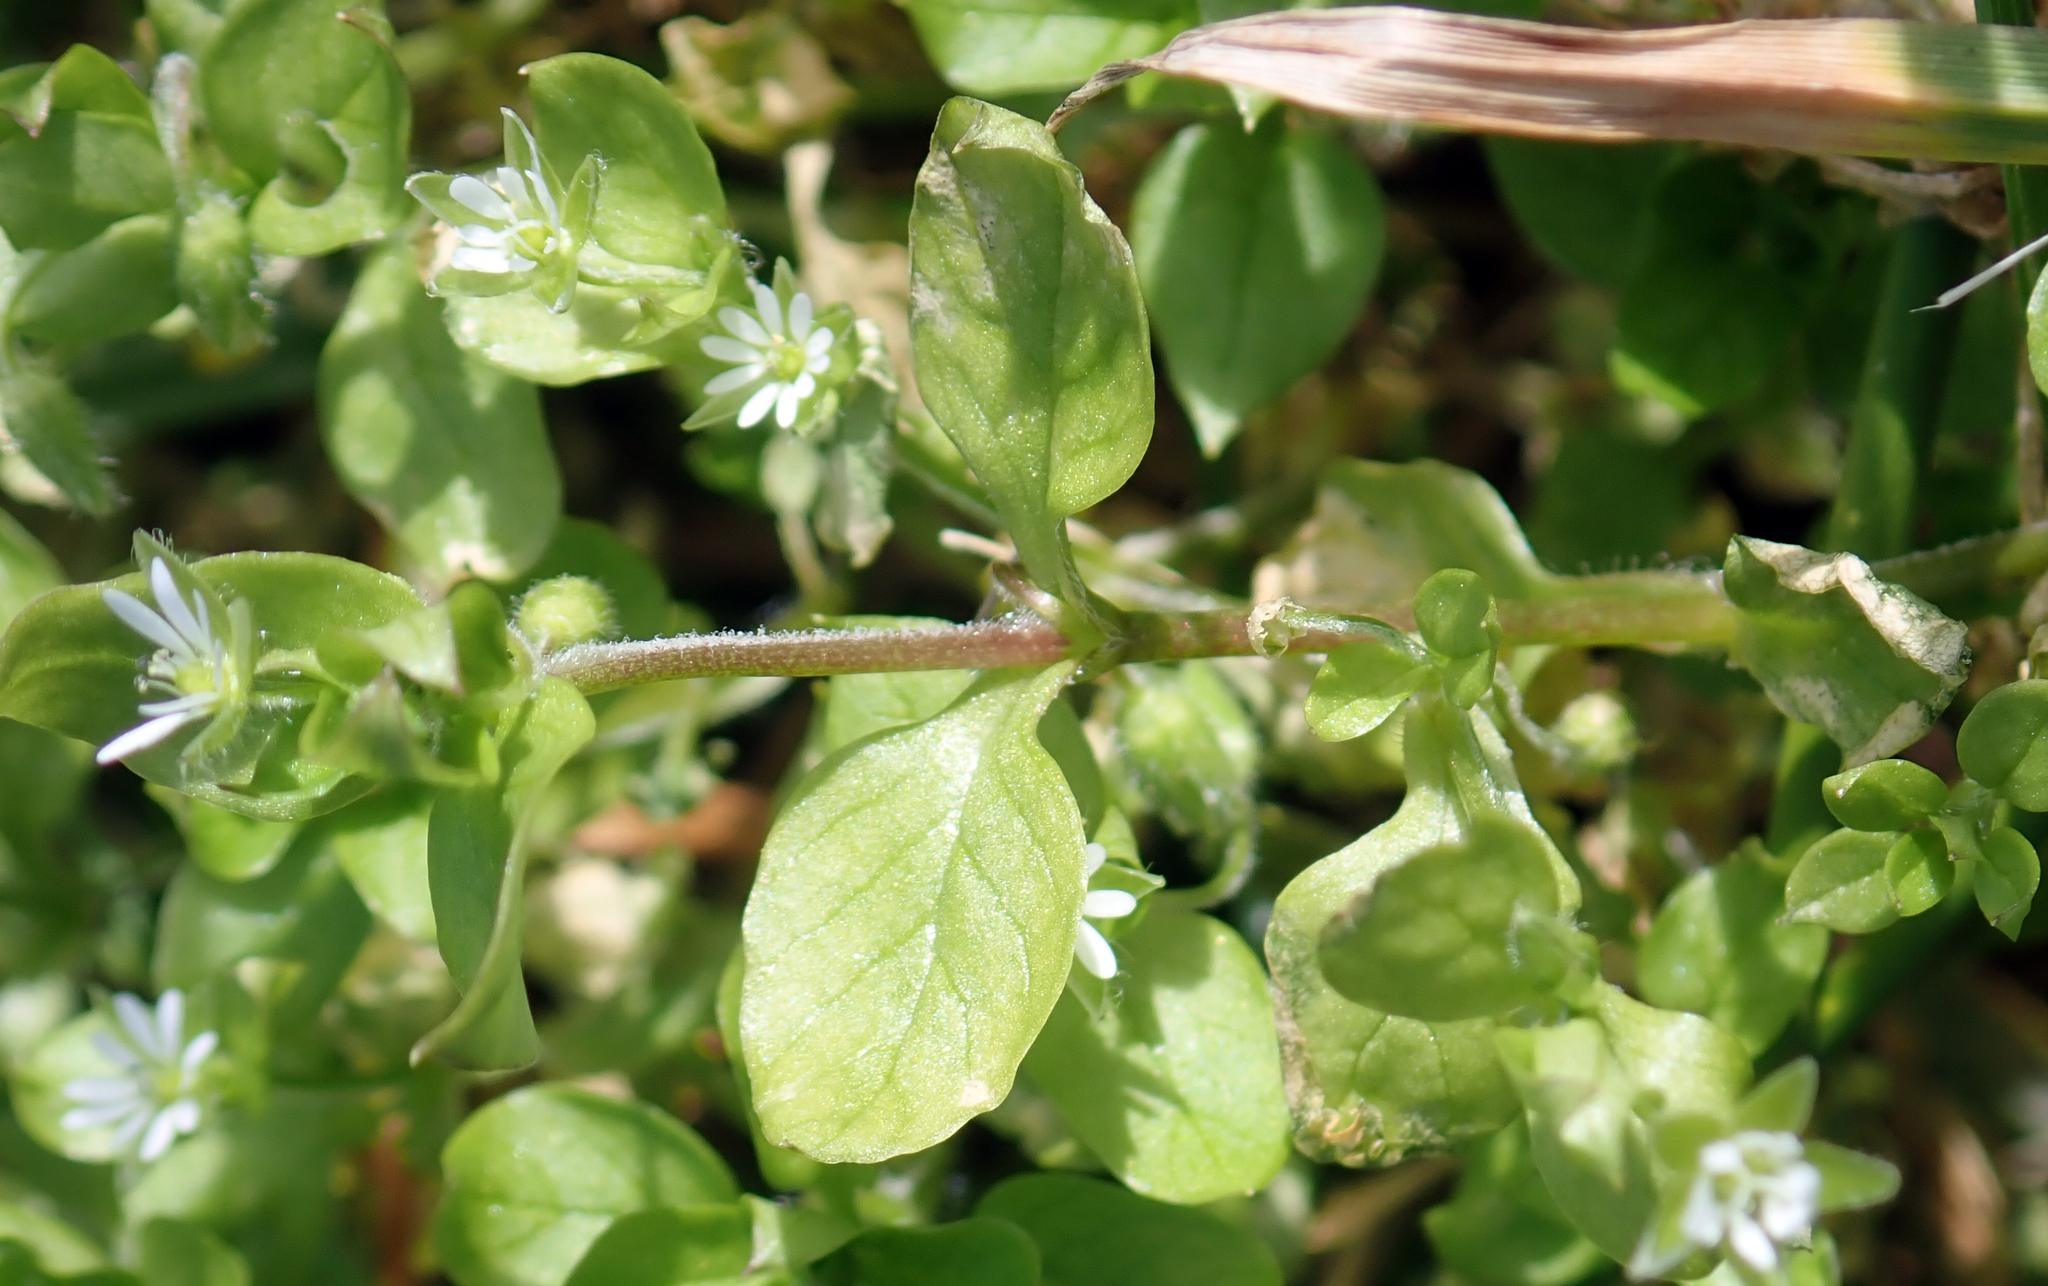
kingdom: Plantae
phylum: Tracheophyta
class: Magnoliopsida
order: Caryophyllales
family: Caryophyllaceae
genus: Stellaria
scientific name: Stellaria media
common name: Common chickweed
